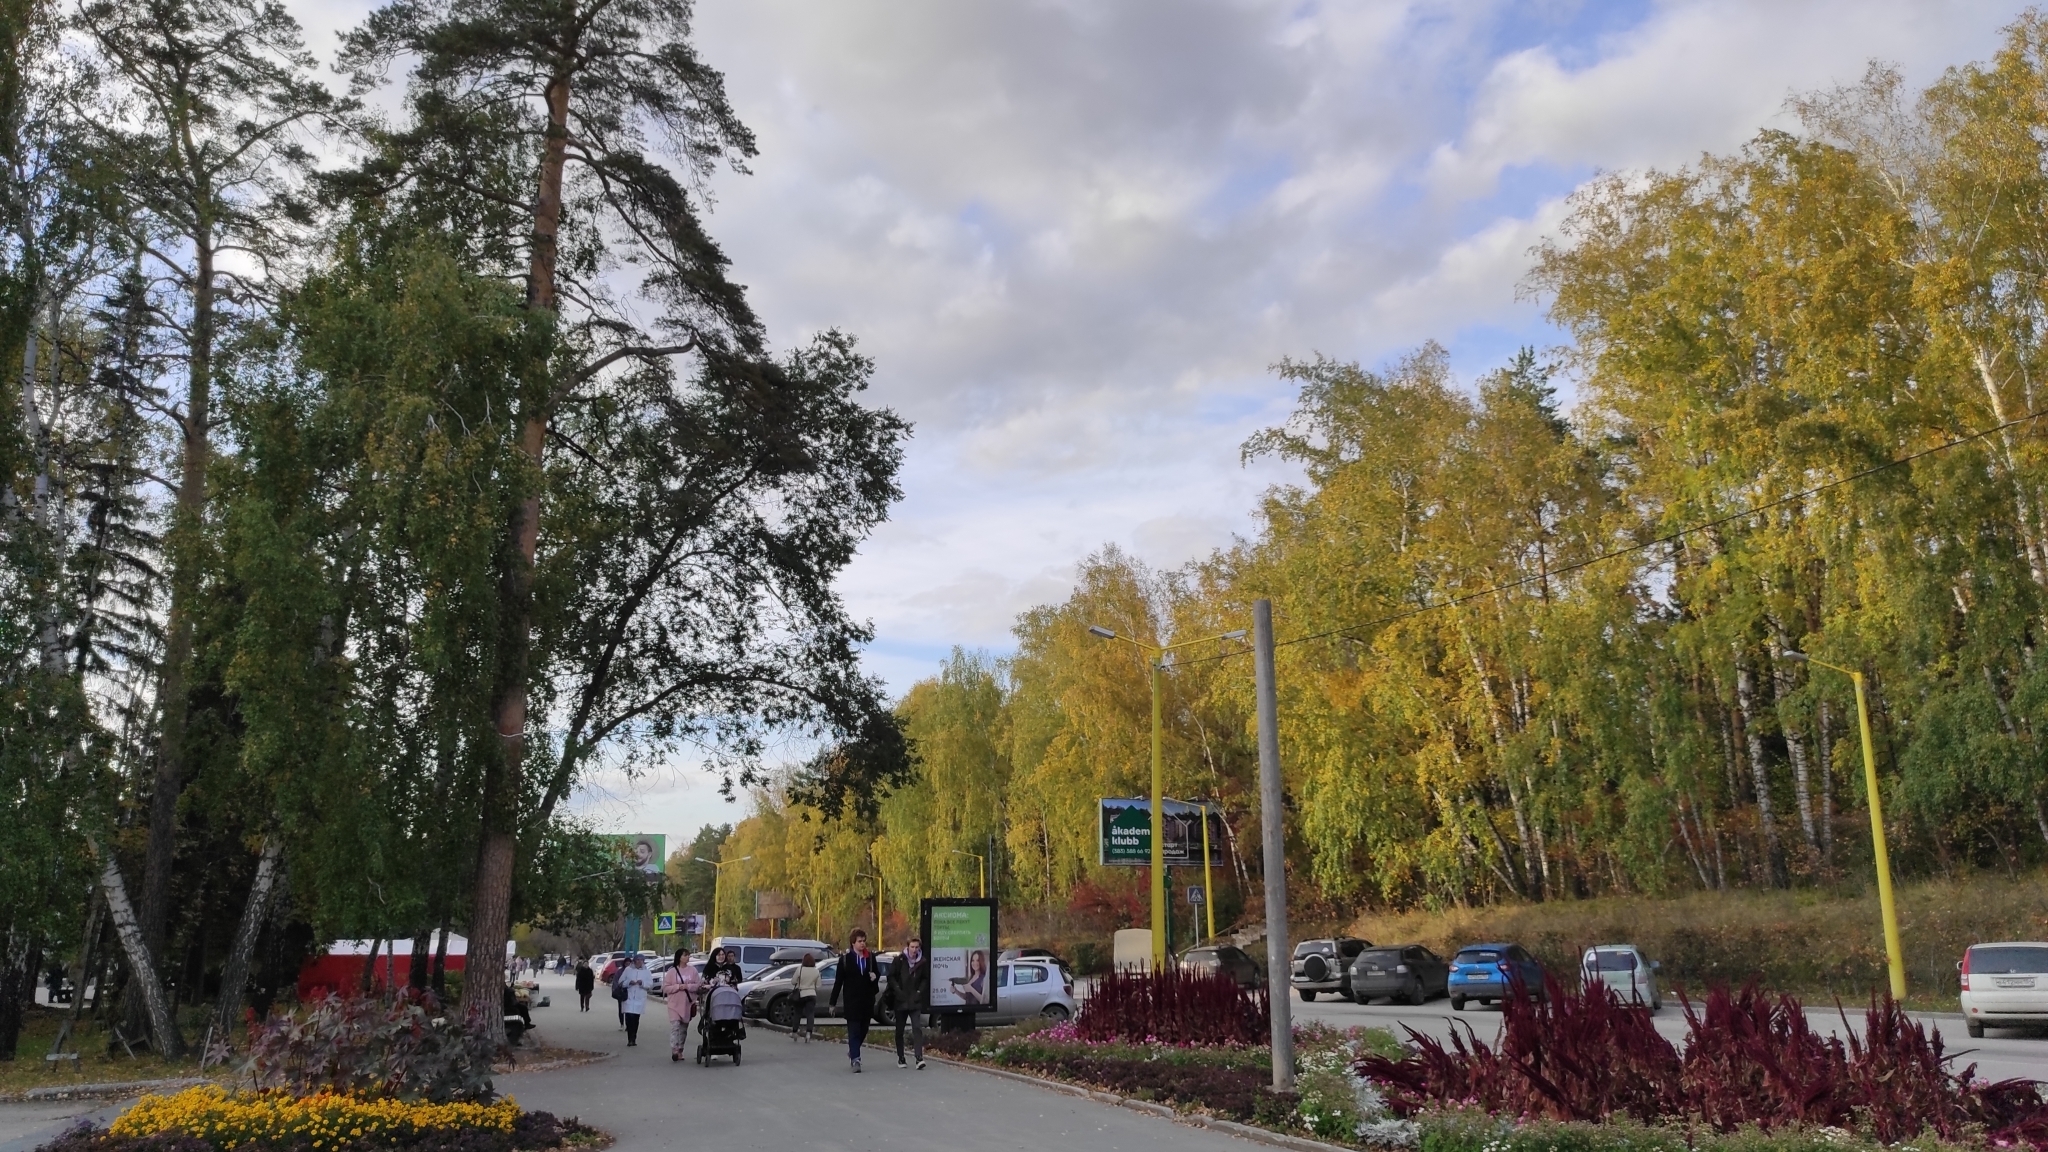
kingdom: Plantae
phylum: Tracheophyta
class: Pinopsida
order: Pinales
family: Pinaceae
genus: Pinus
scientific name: Pinus sylvestris
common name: Scots pine
